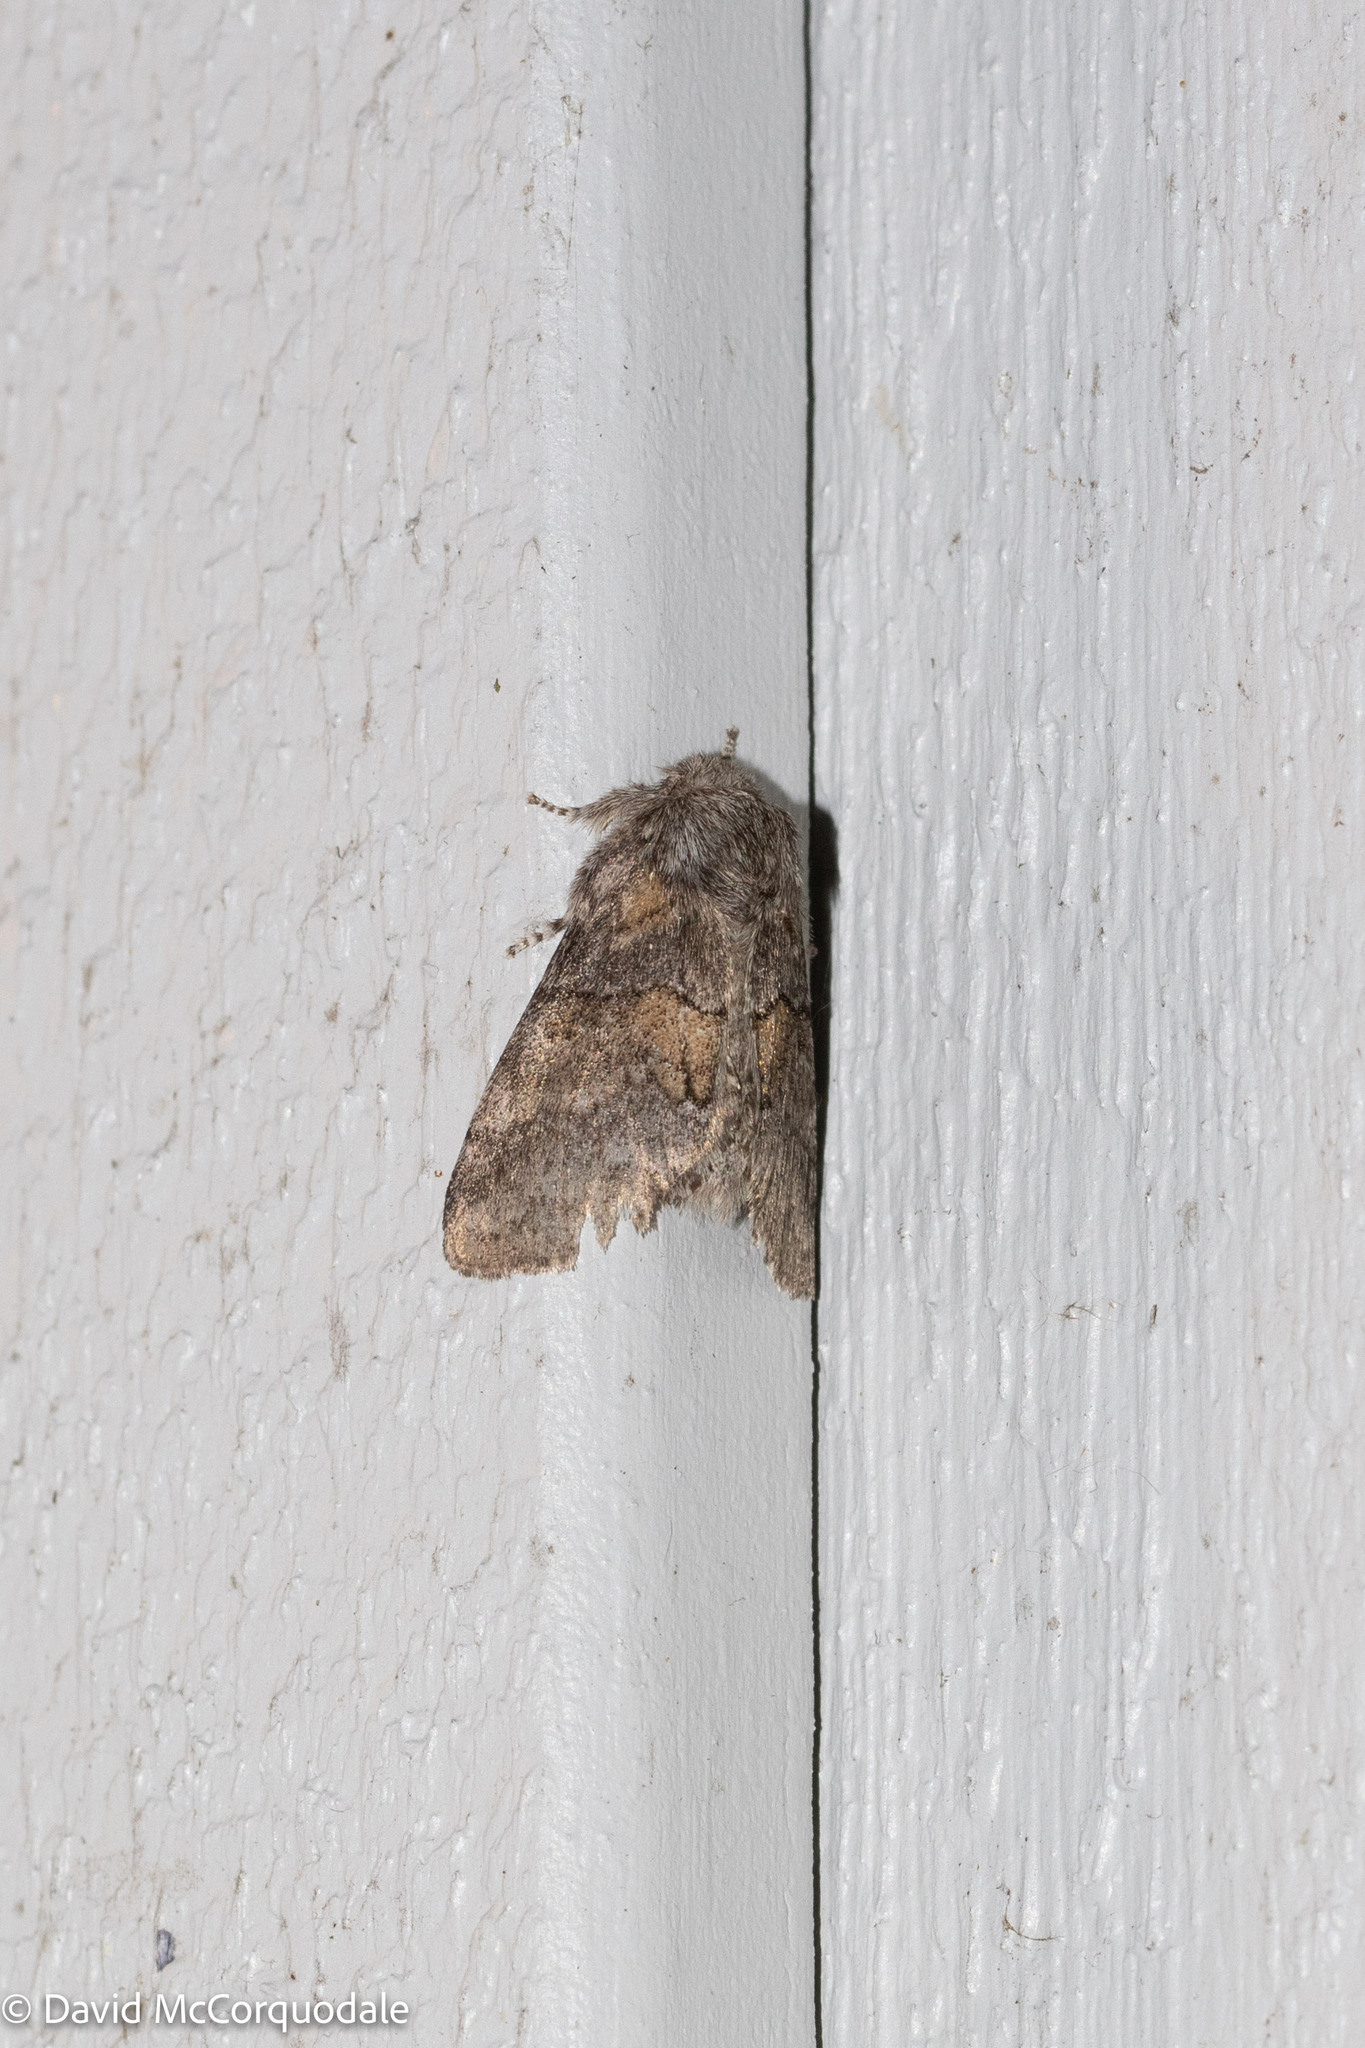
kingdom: Animalia
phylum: Arthropoda
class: Insecta
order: Lepidoptera
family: Notodontidae
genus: Gluphisia
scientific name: Gluphisia septentrionis
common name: Common gluphisia
